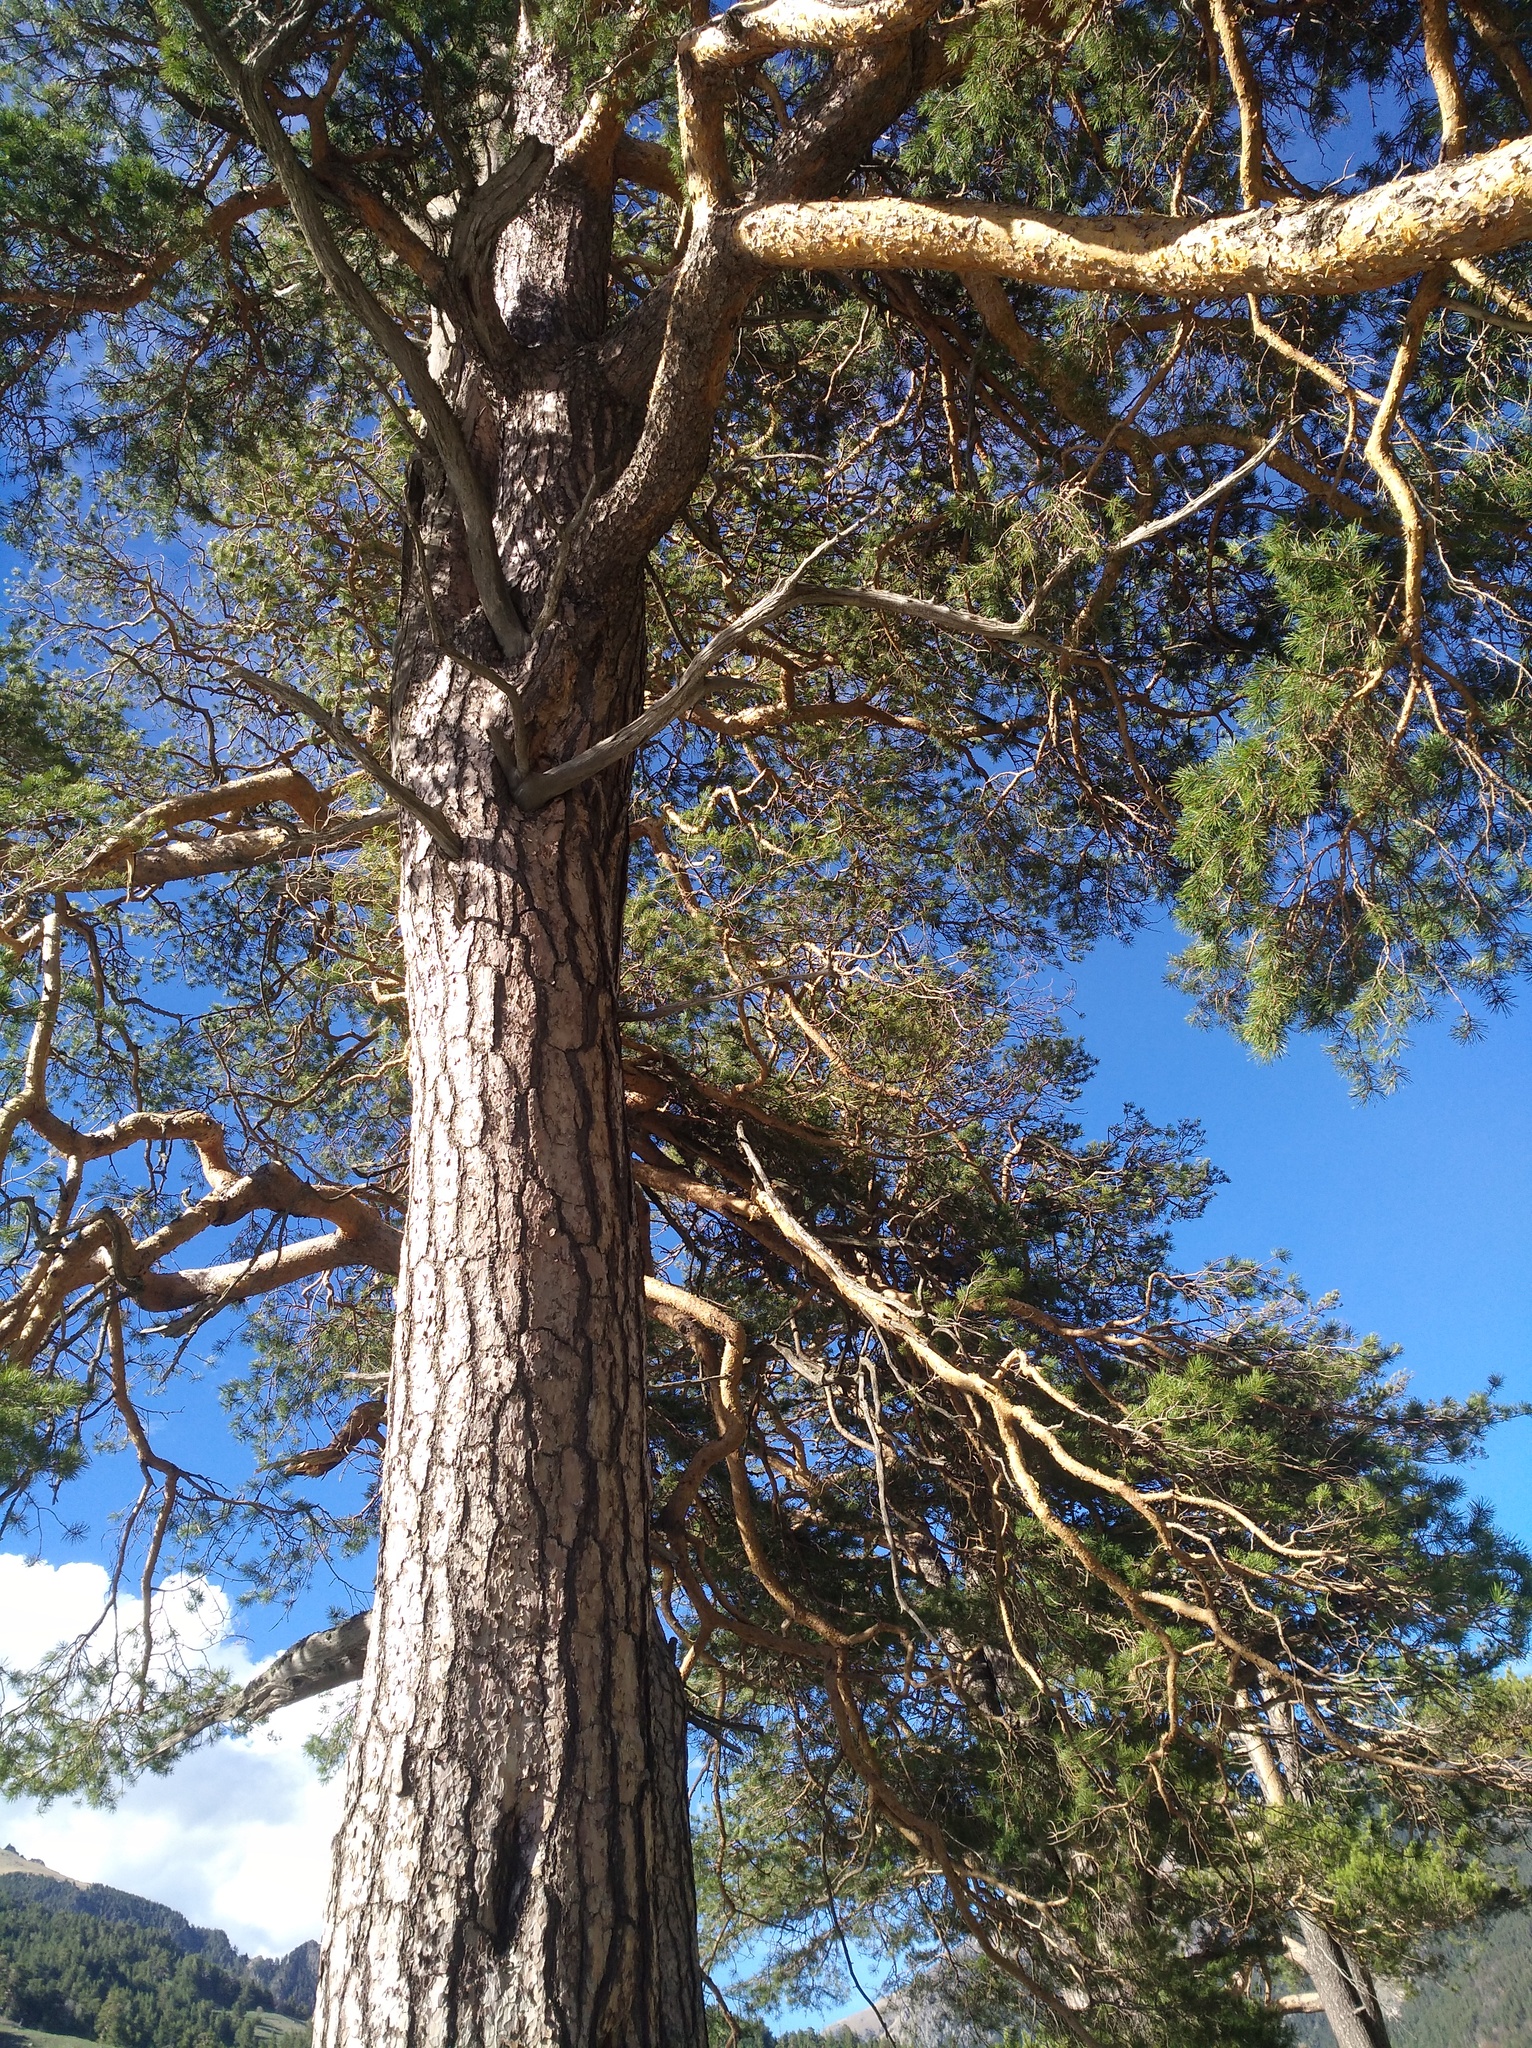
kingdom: Plantae
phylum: Tracheophyta
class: Pinopsida
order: Pinales
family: Pinaceae
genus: Pinus
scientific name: Pinus sylvestris
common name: Scots pine
